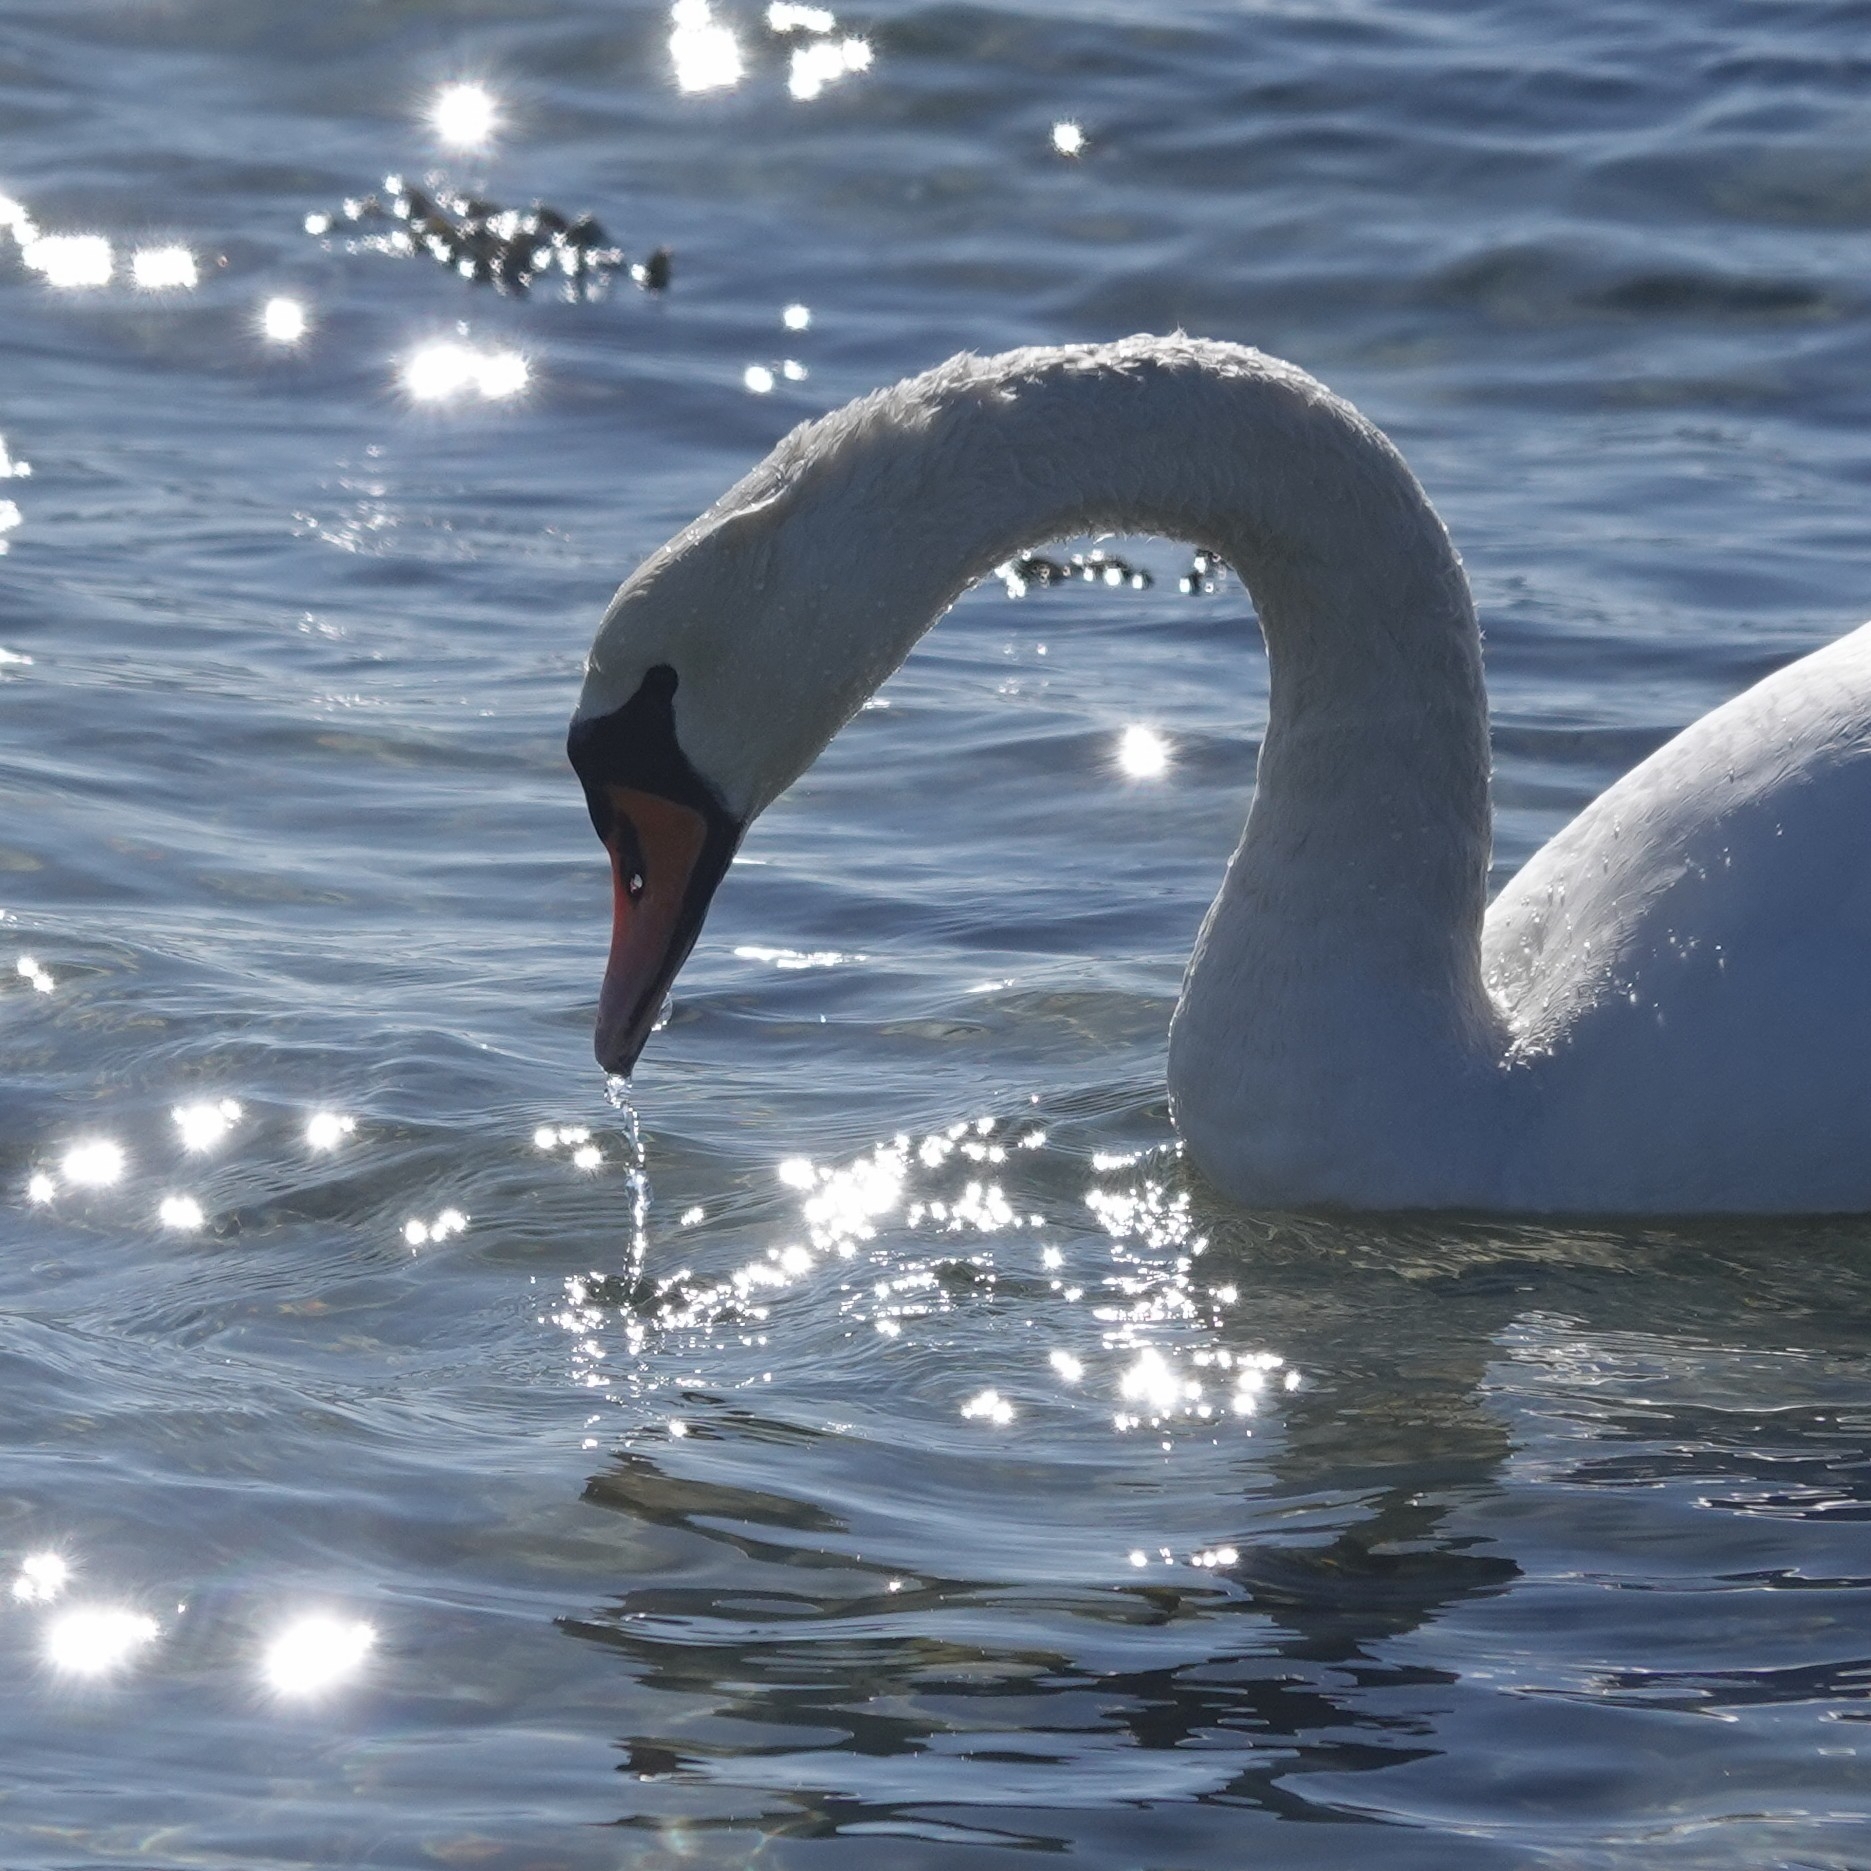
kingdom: Animalia
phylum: Chordata
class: Aves
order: Anseriformes
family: Anatidae
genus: Cygnus
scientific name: Cygnus olor
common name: Mute swan
